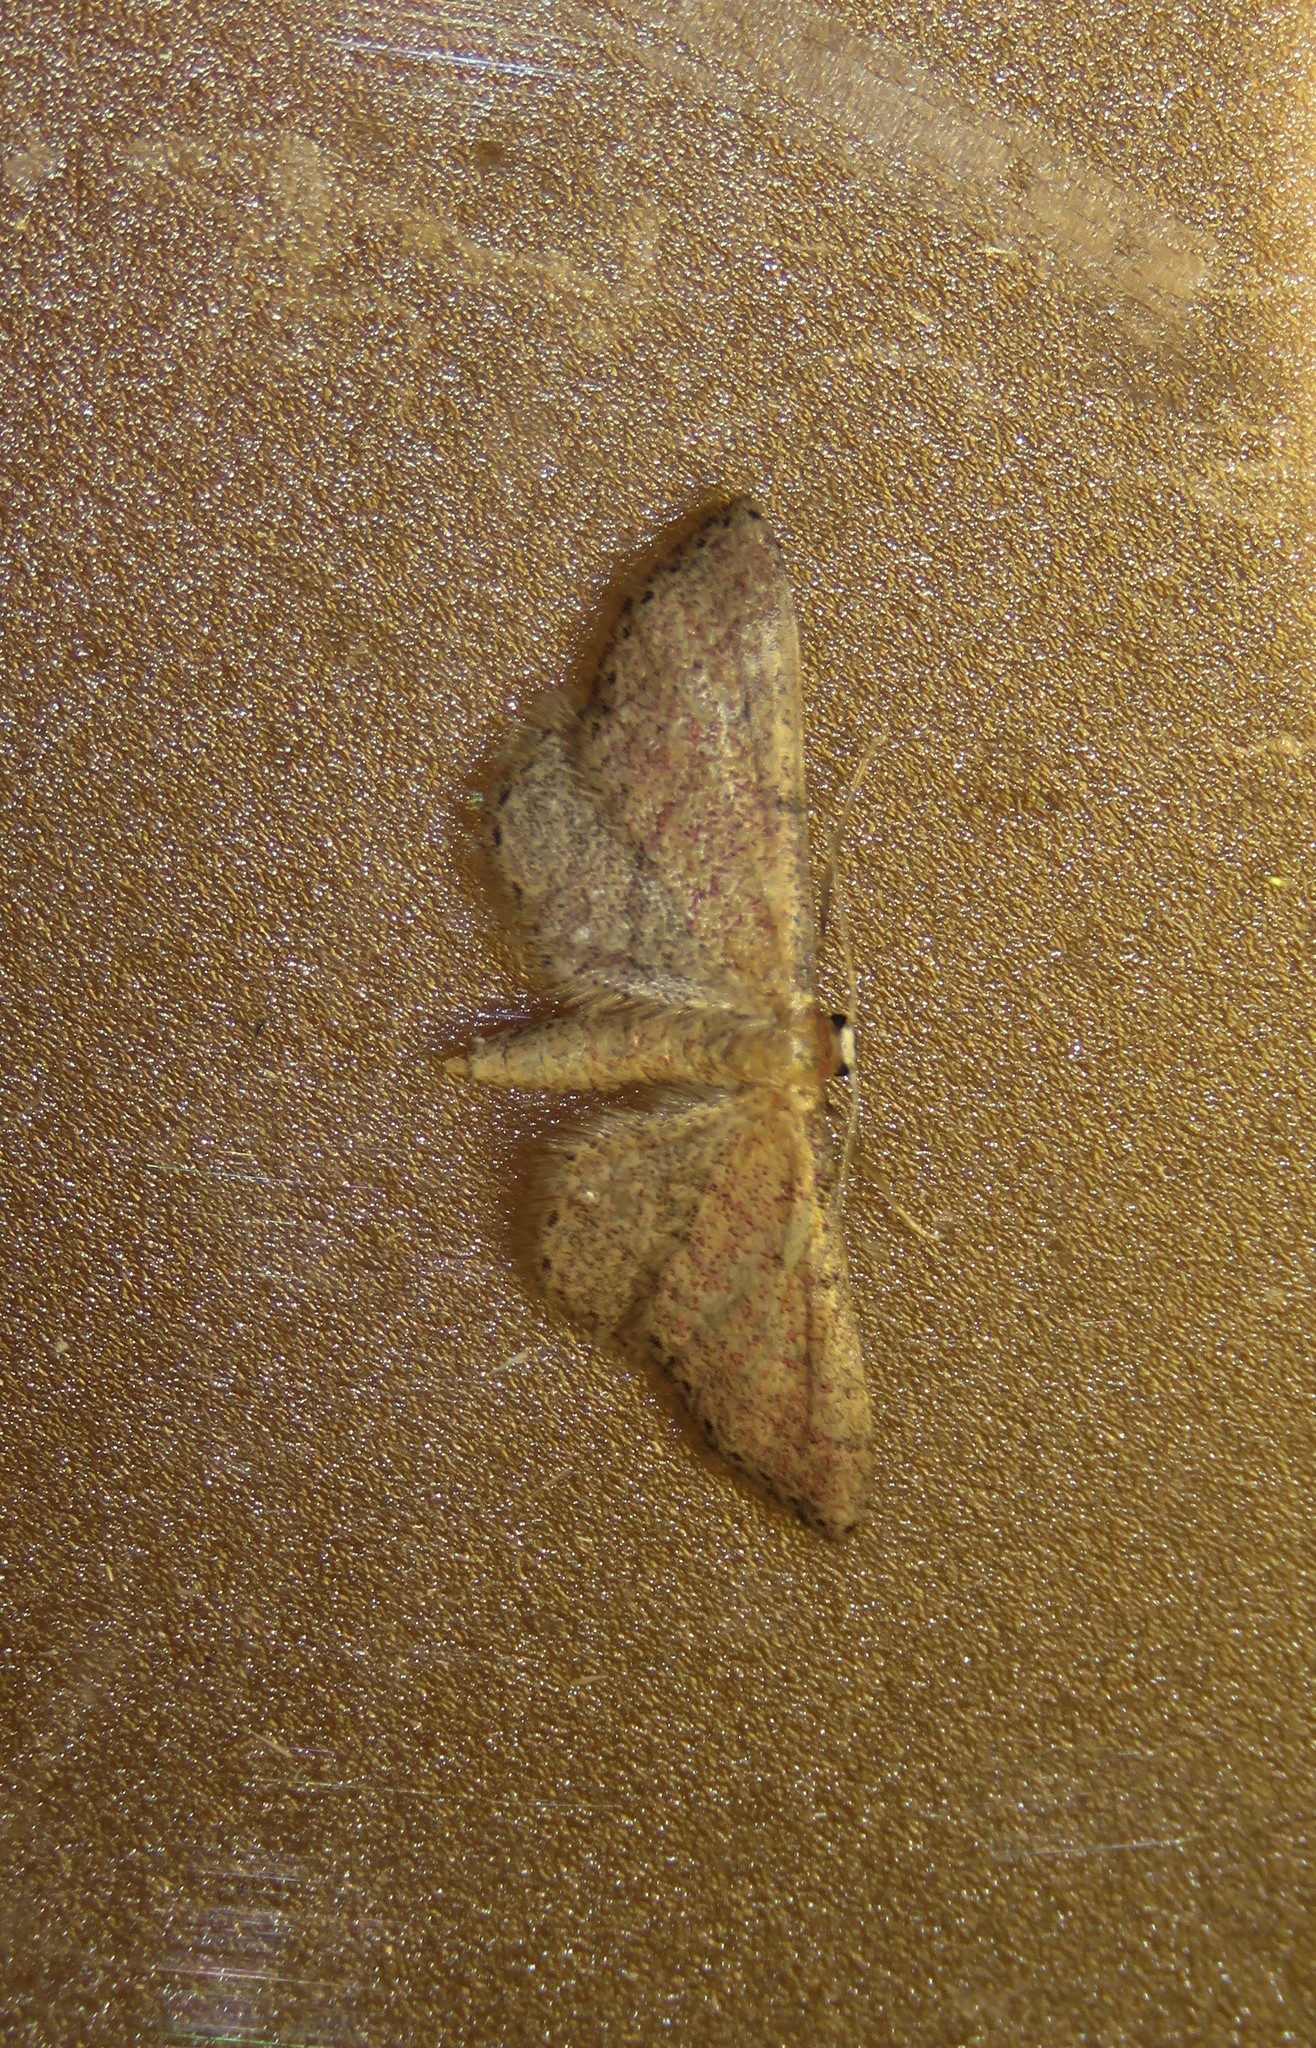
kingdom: Animalia
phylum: Arthropoda
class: Insecta
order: Lepidoptera
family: Geometridae
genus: Idaea
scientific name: Idaea infirmaria
